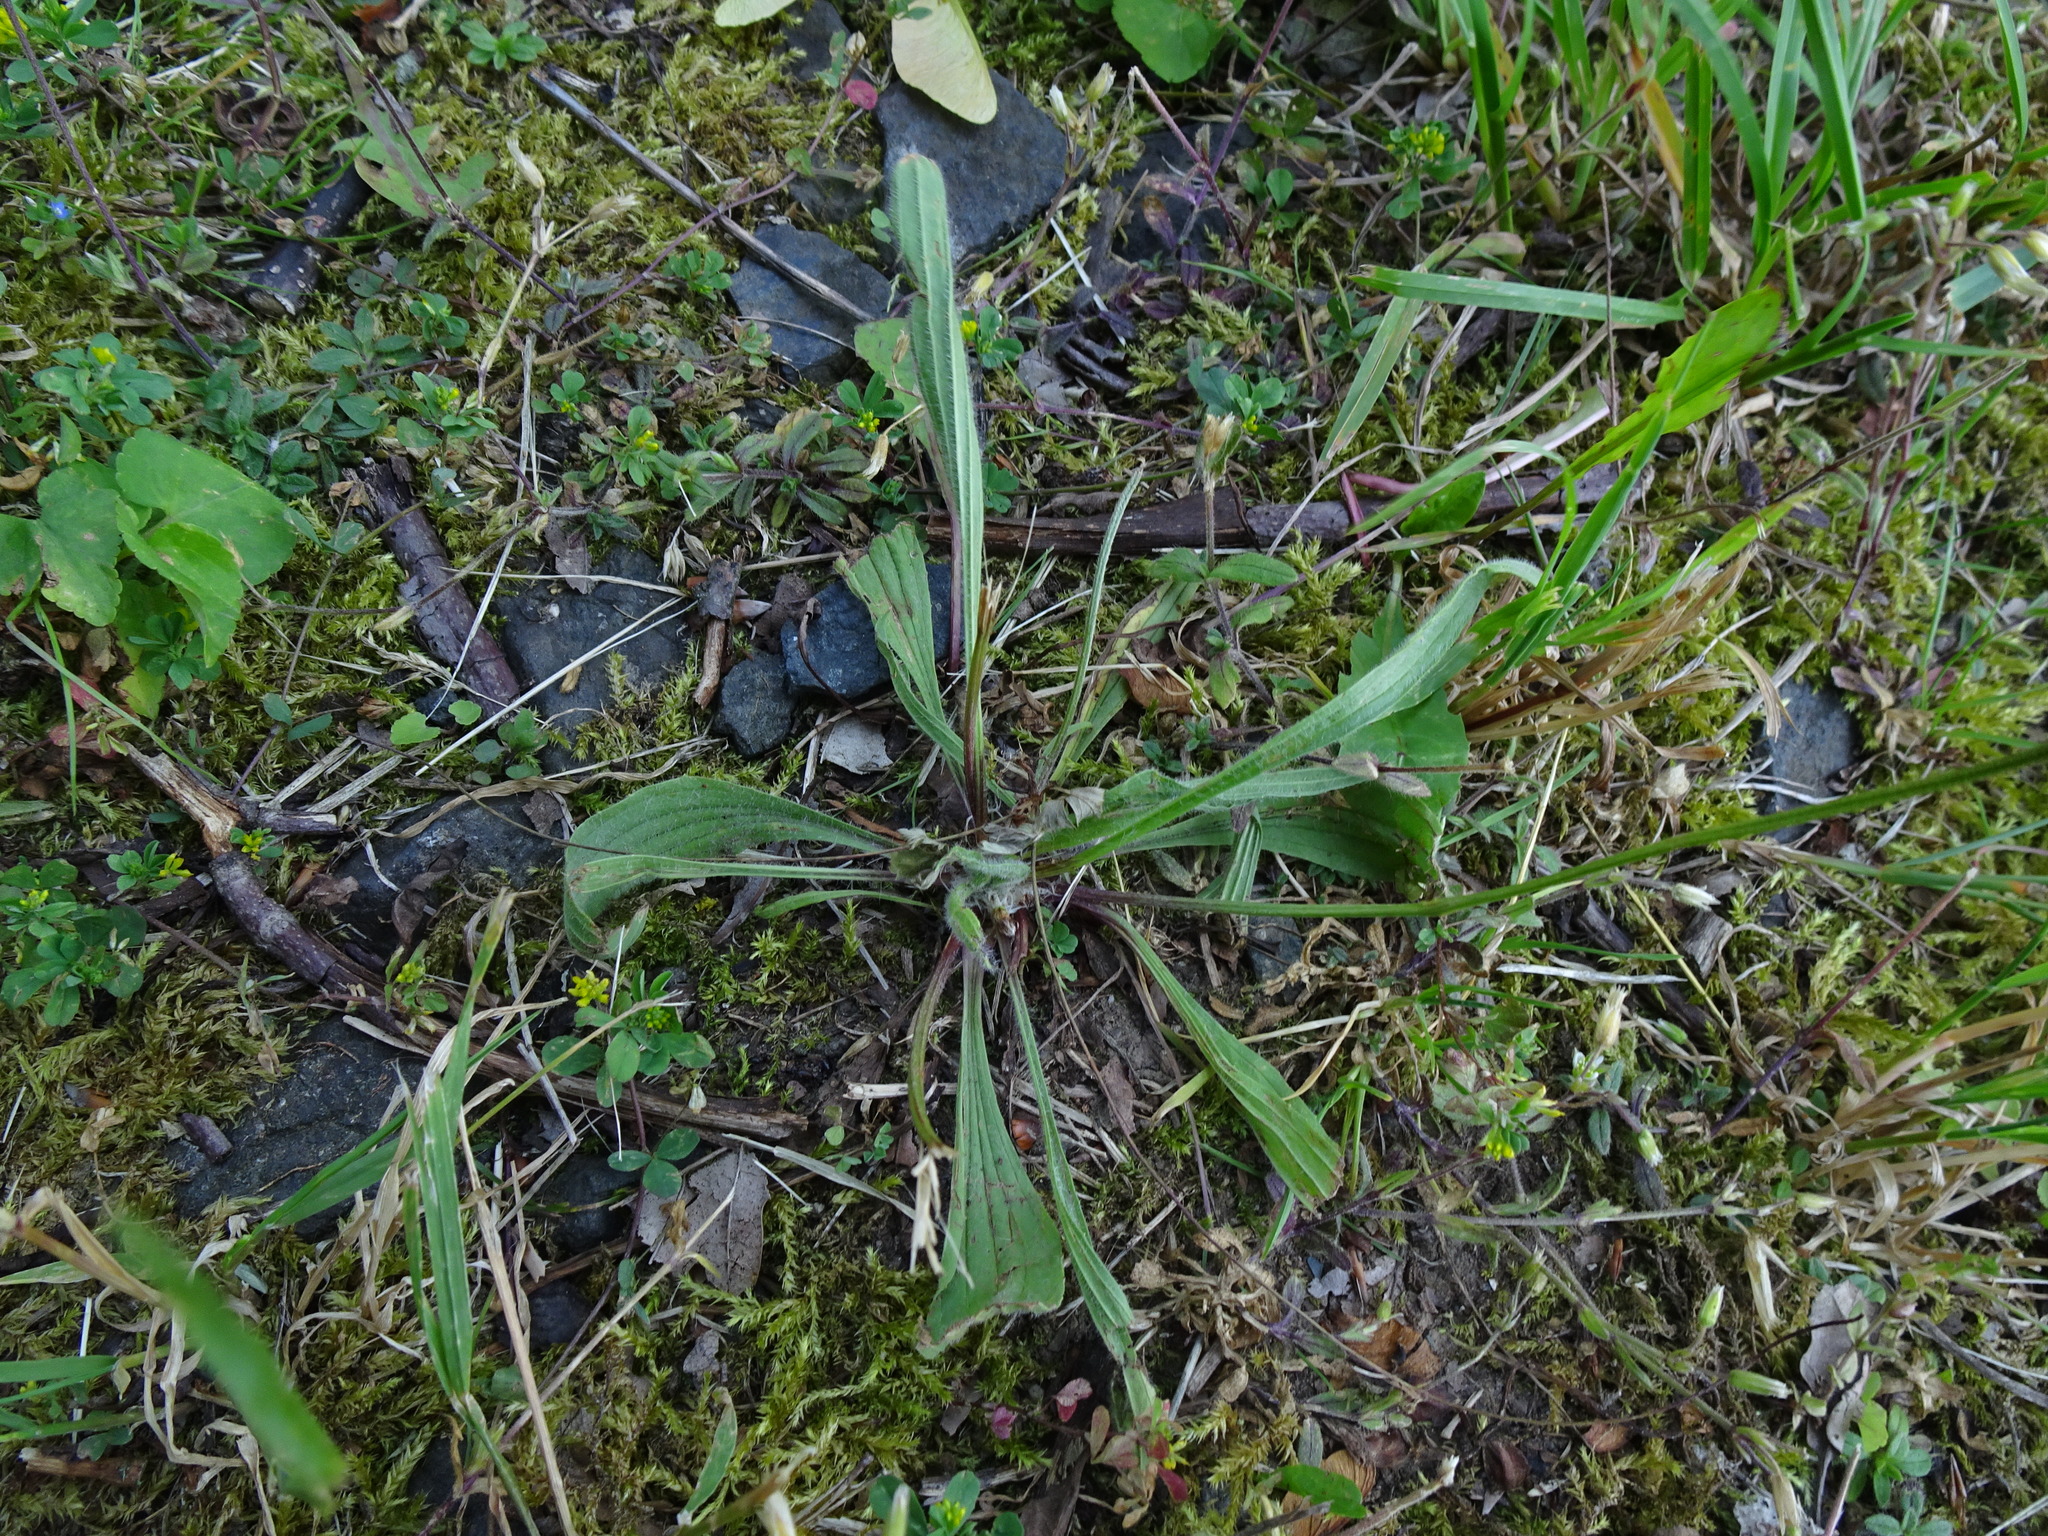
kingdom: Plantae
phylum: Tracheophyta
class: Magnoliopsida
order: Lamiales
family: Plantaginaceae
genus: Plantago
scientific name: Plantago lanceolata
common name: Ribwort plantain
